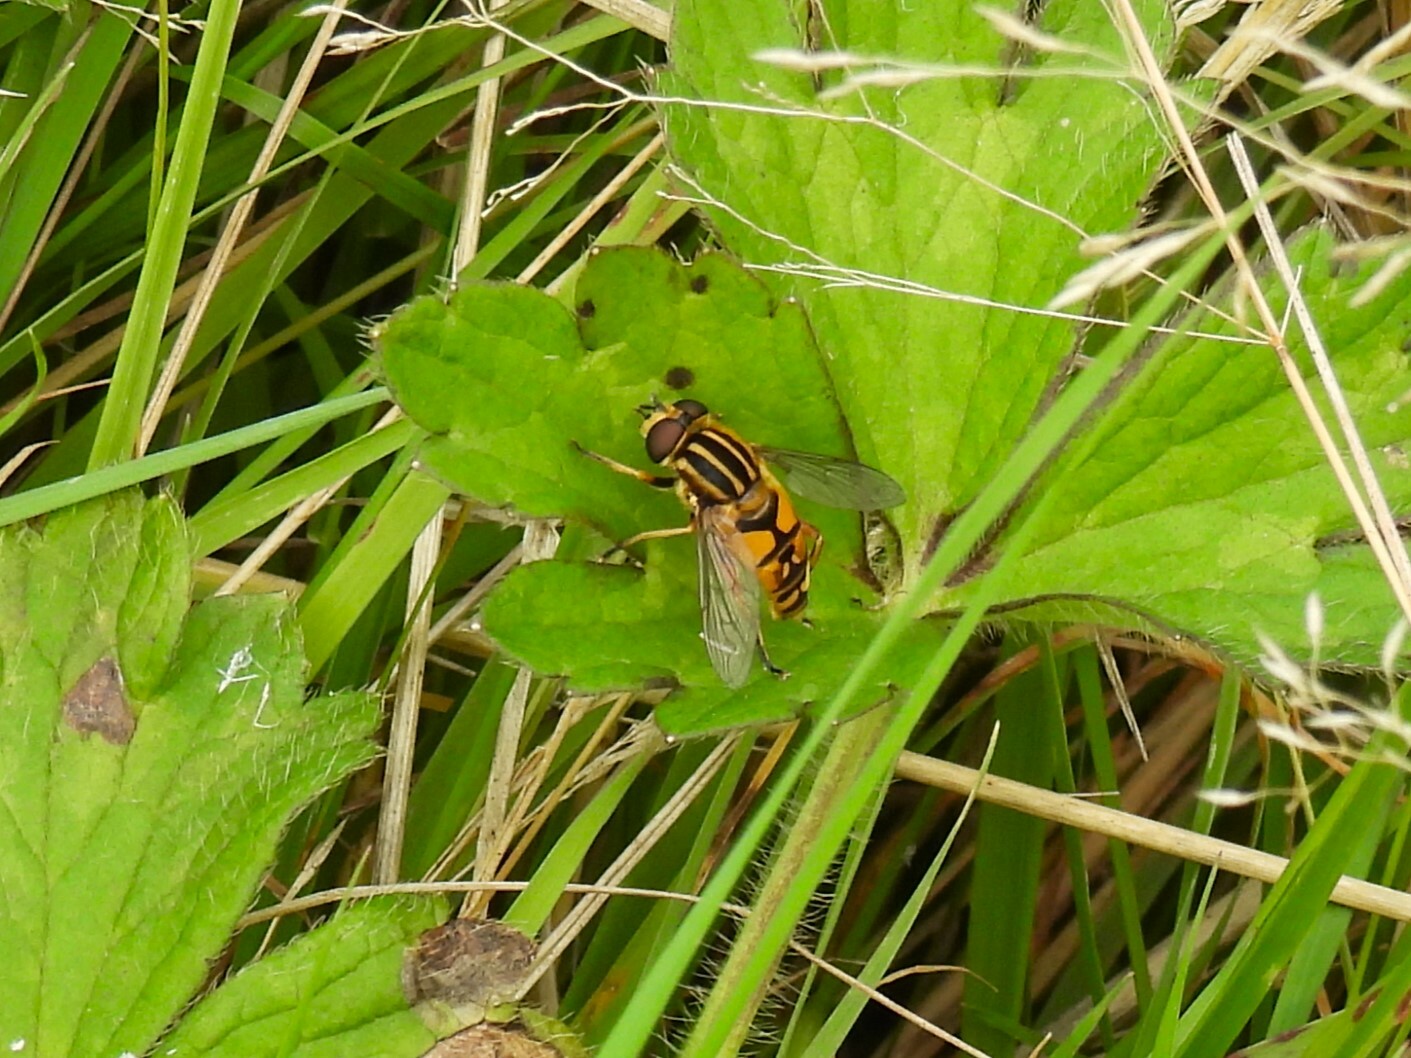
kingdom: Animalia
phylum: Arthropoda
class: Insecta
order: Diptera
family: Syrphidae
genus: Helophilus
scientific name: Helophilus pendulus
